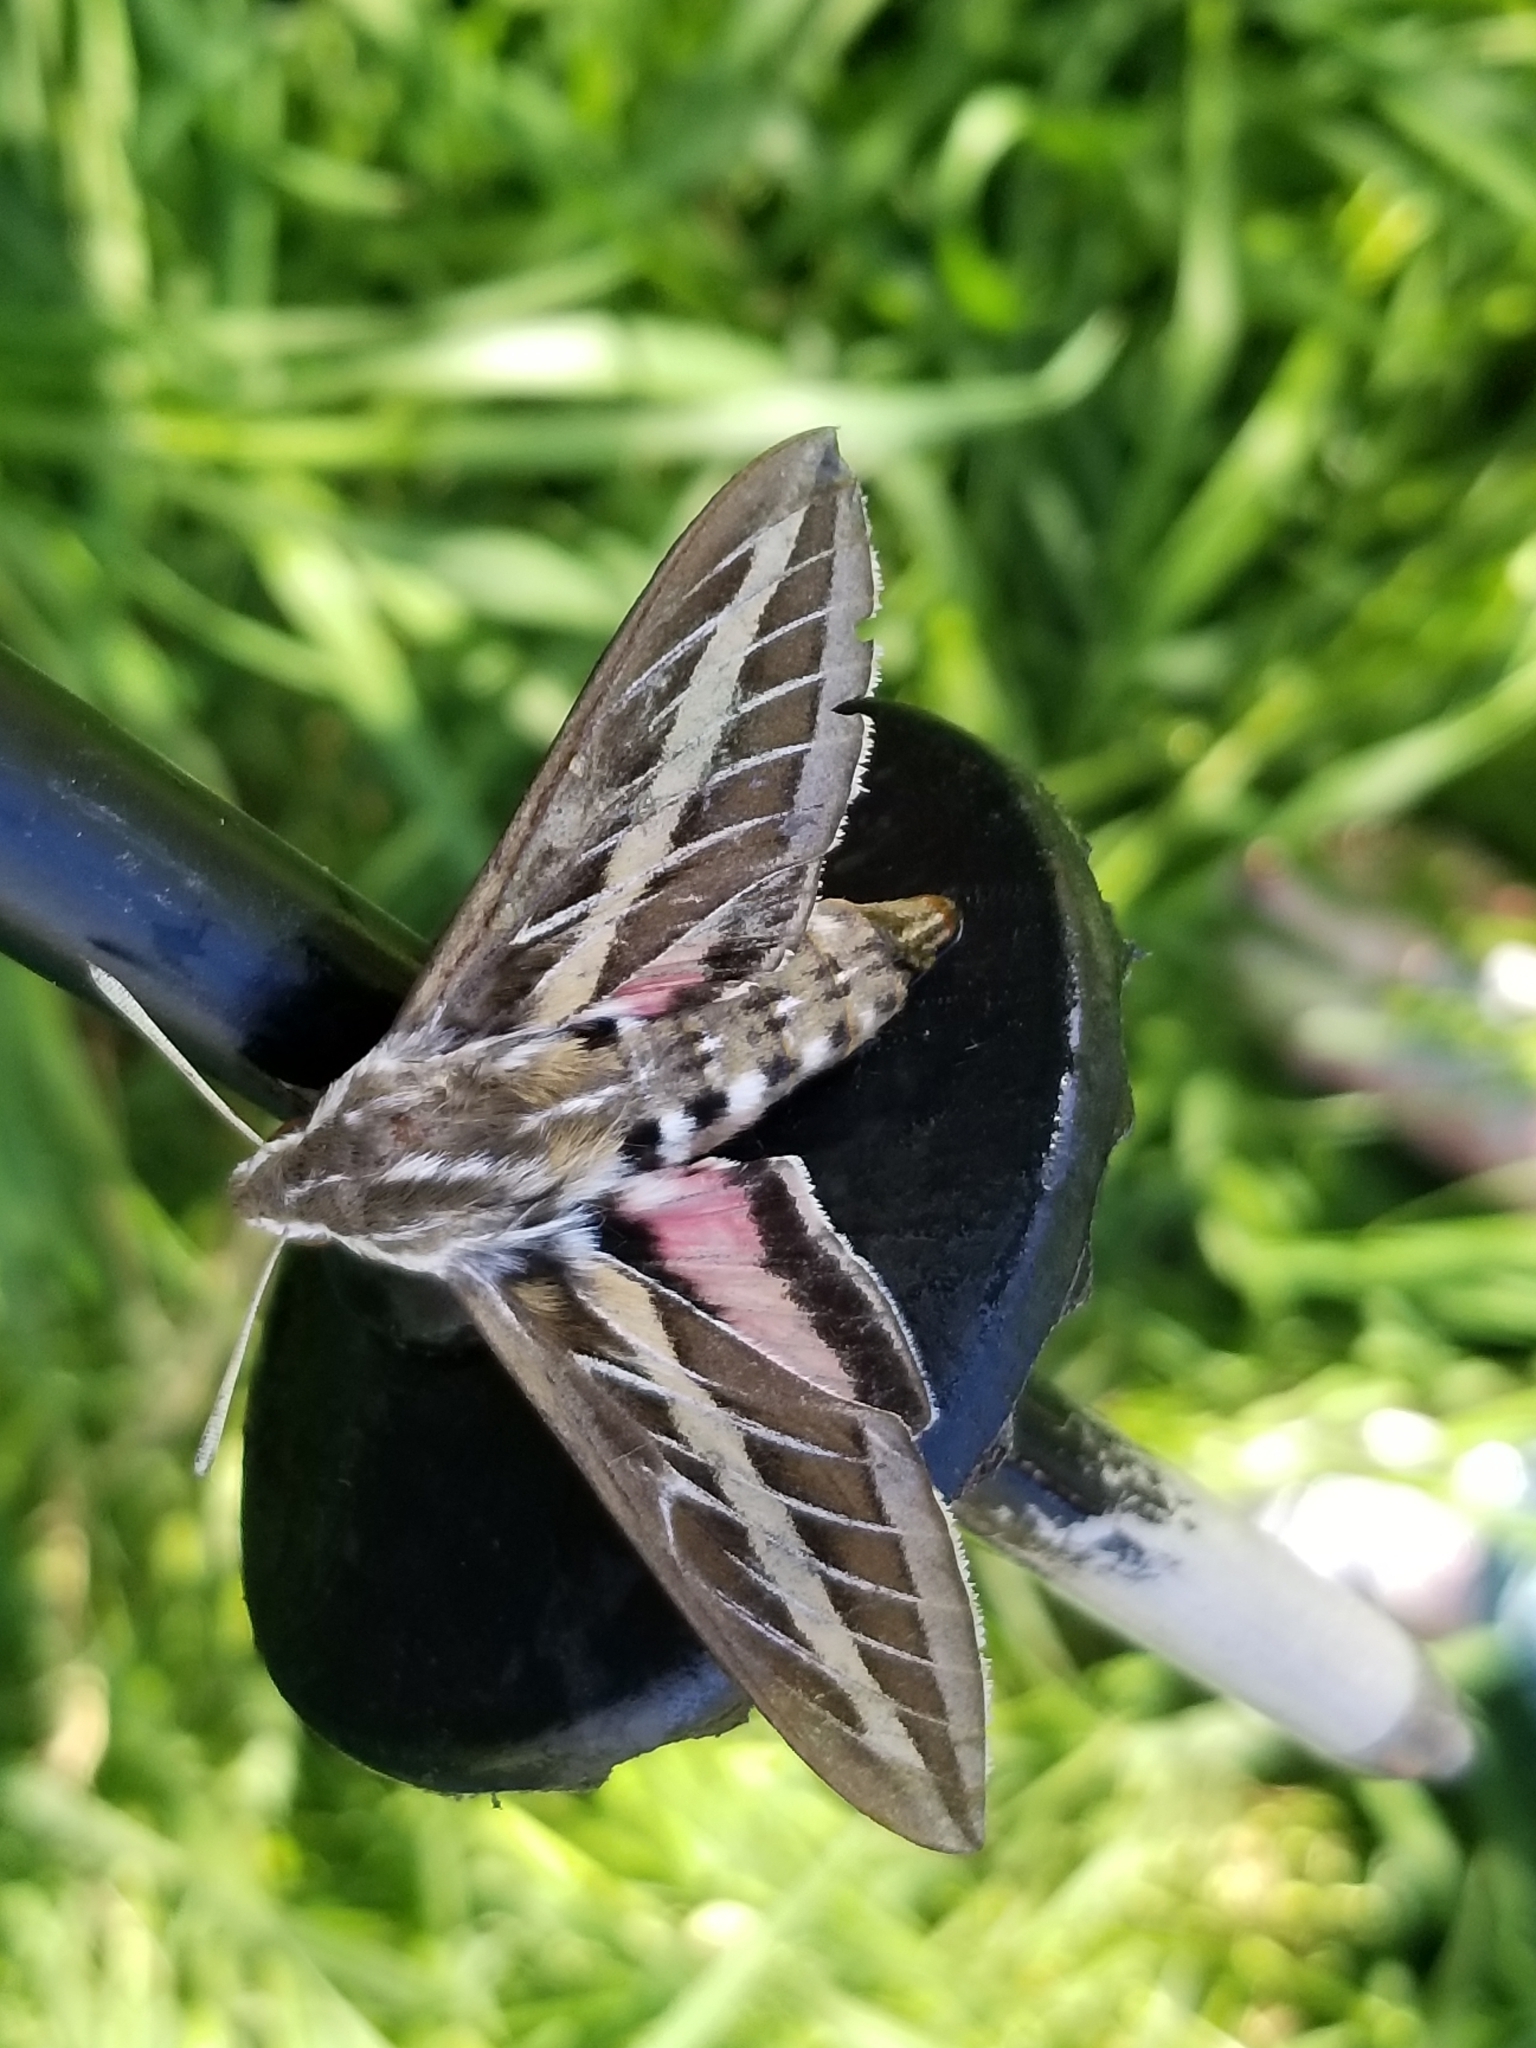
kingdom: Animalia
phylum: Arthropoda
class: Insecta
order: Lepidoptera
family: Sphingidae
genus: Hyles
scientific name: Hyles lineata
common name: White-lined sphinx
